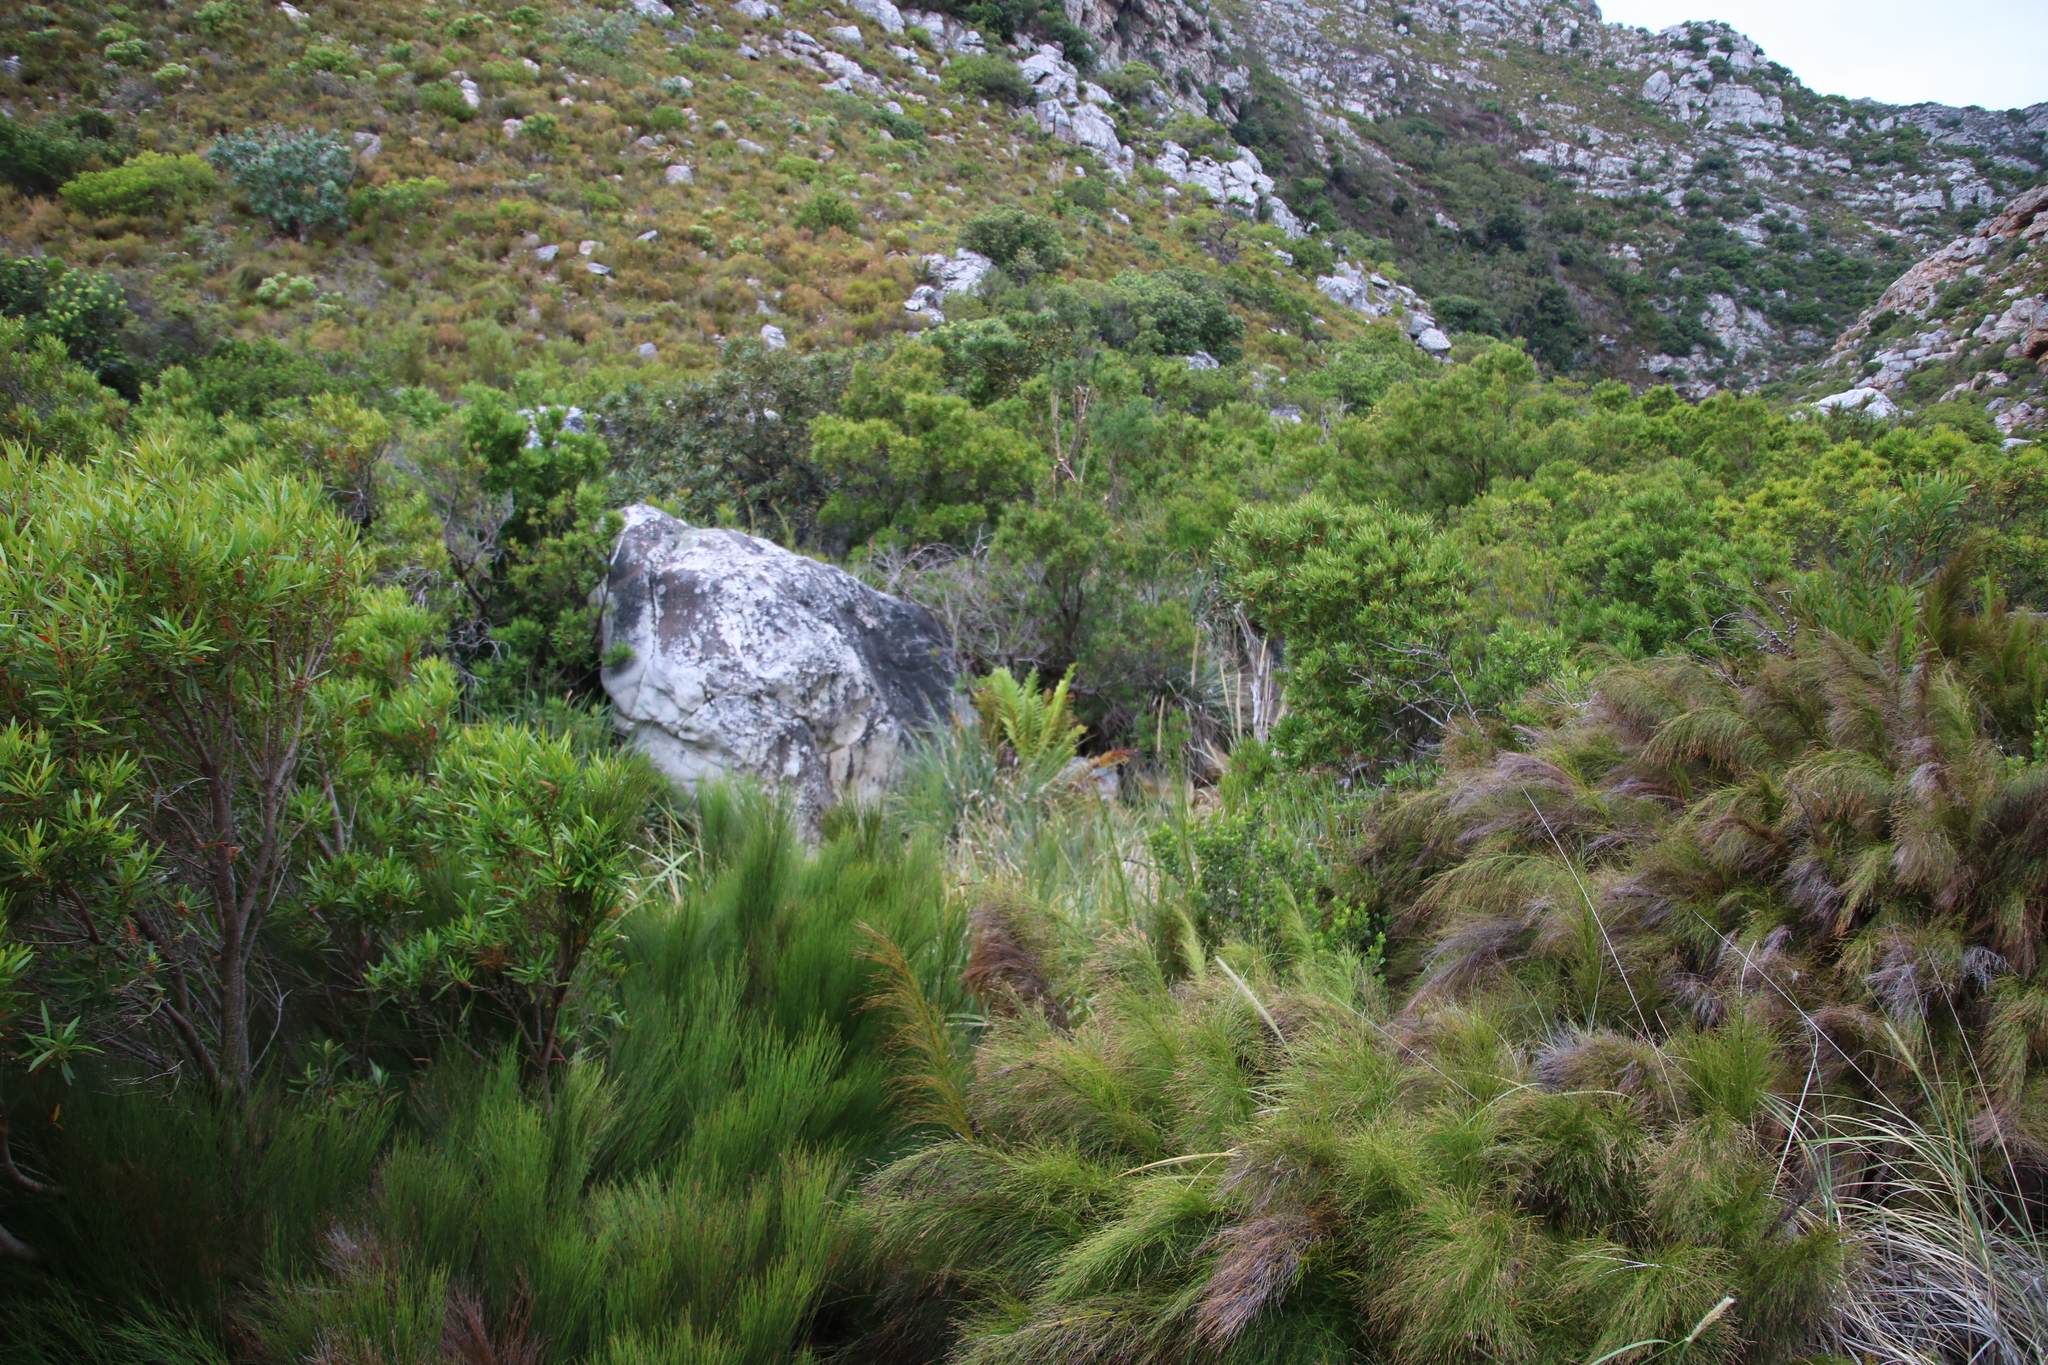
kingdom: Plantae
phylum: Tracheophyta
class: Polypodiopsida
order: Osmundales
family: Osmundaceae
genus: Todea
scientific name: Todea barbara
